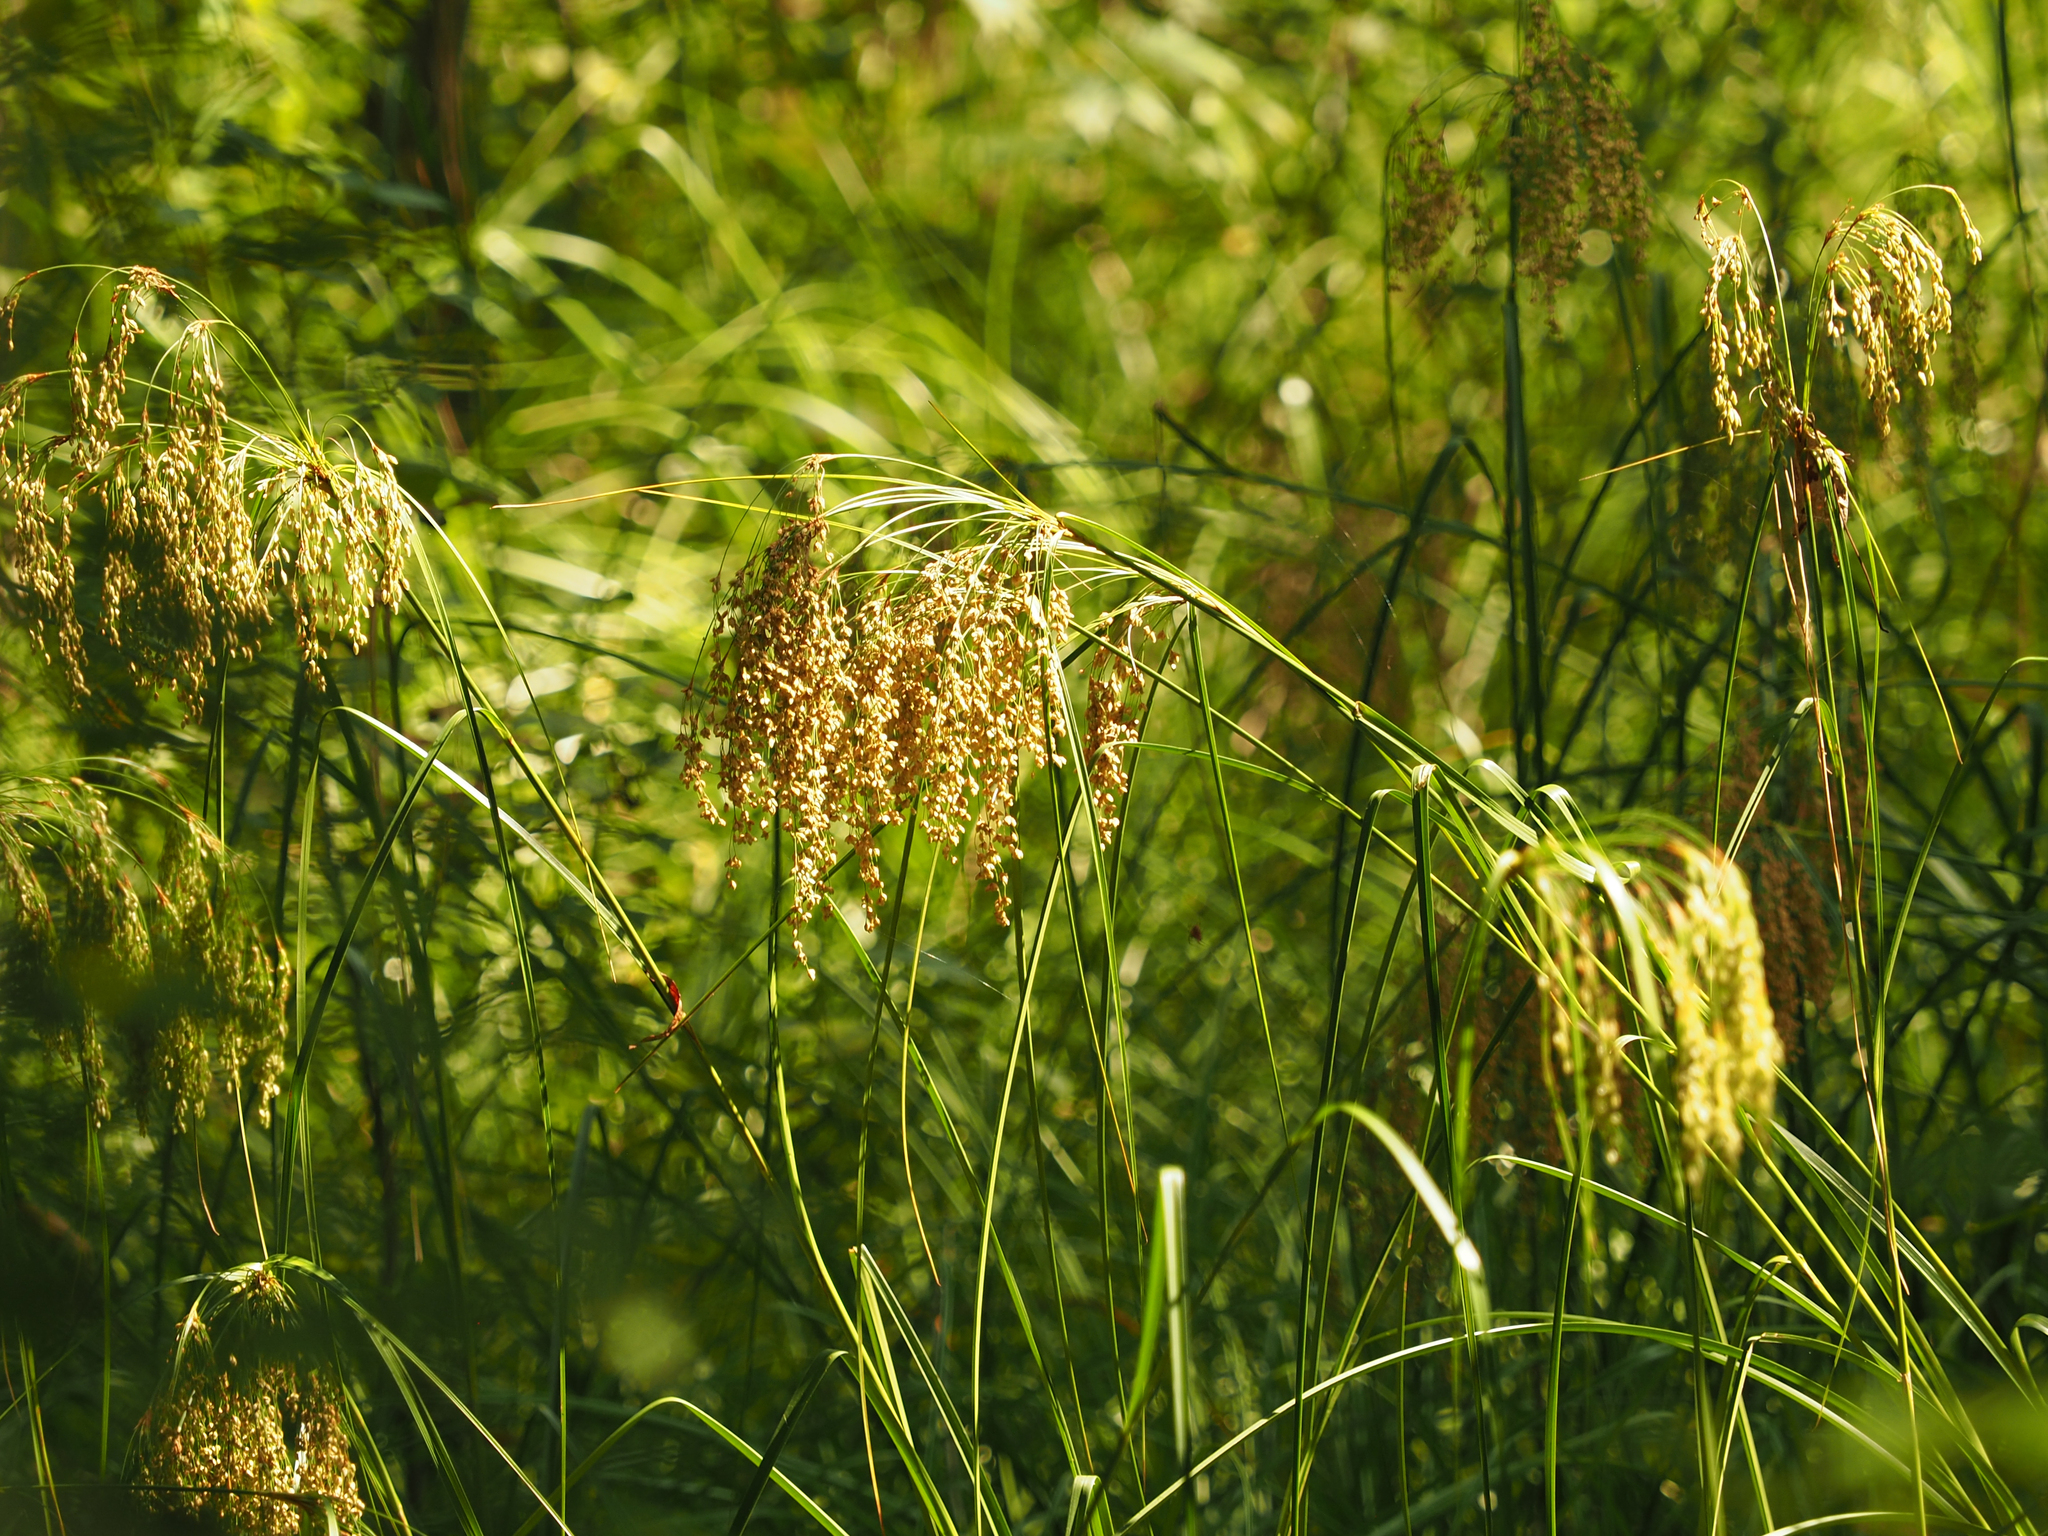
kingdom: Plantae
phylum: Tracheophyta
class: Liliopsida
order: Poales
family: Cyperaceae
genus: Scirpus
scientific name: Scirpus cyperinus
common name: Black-sheathed bulrush
